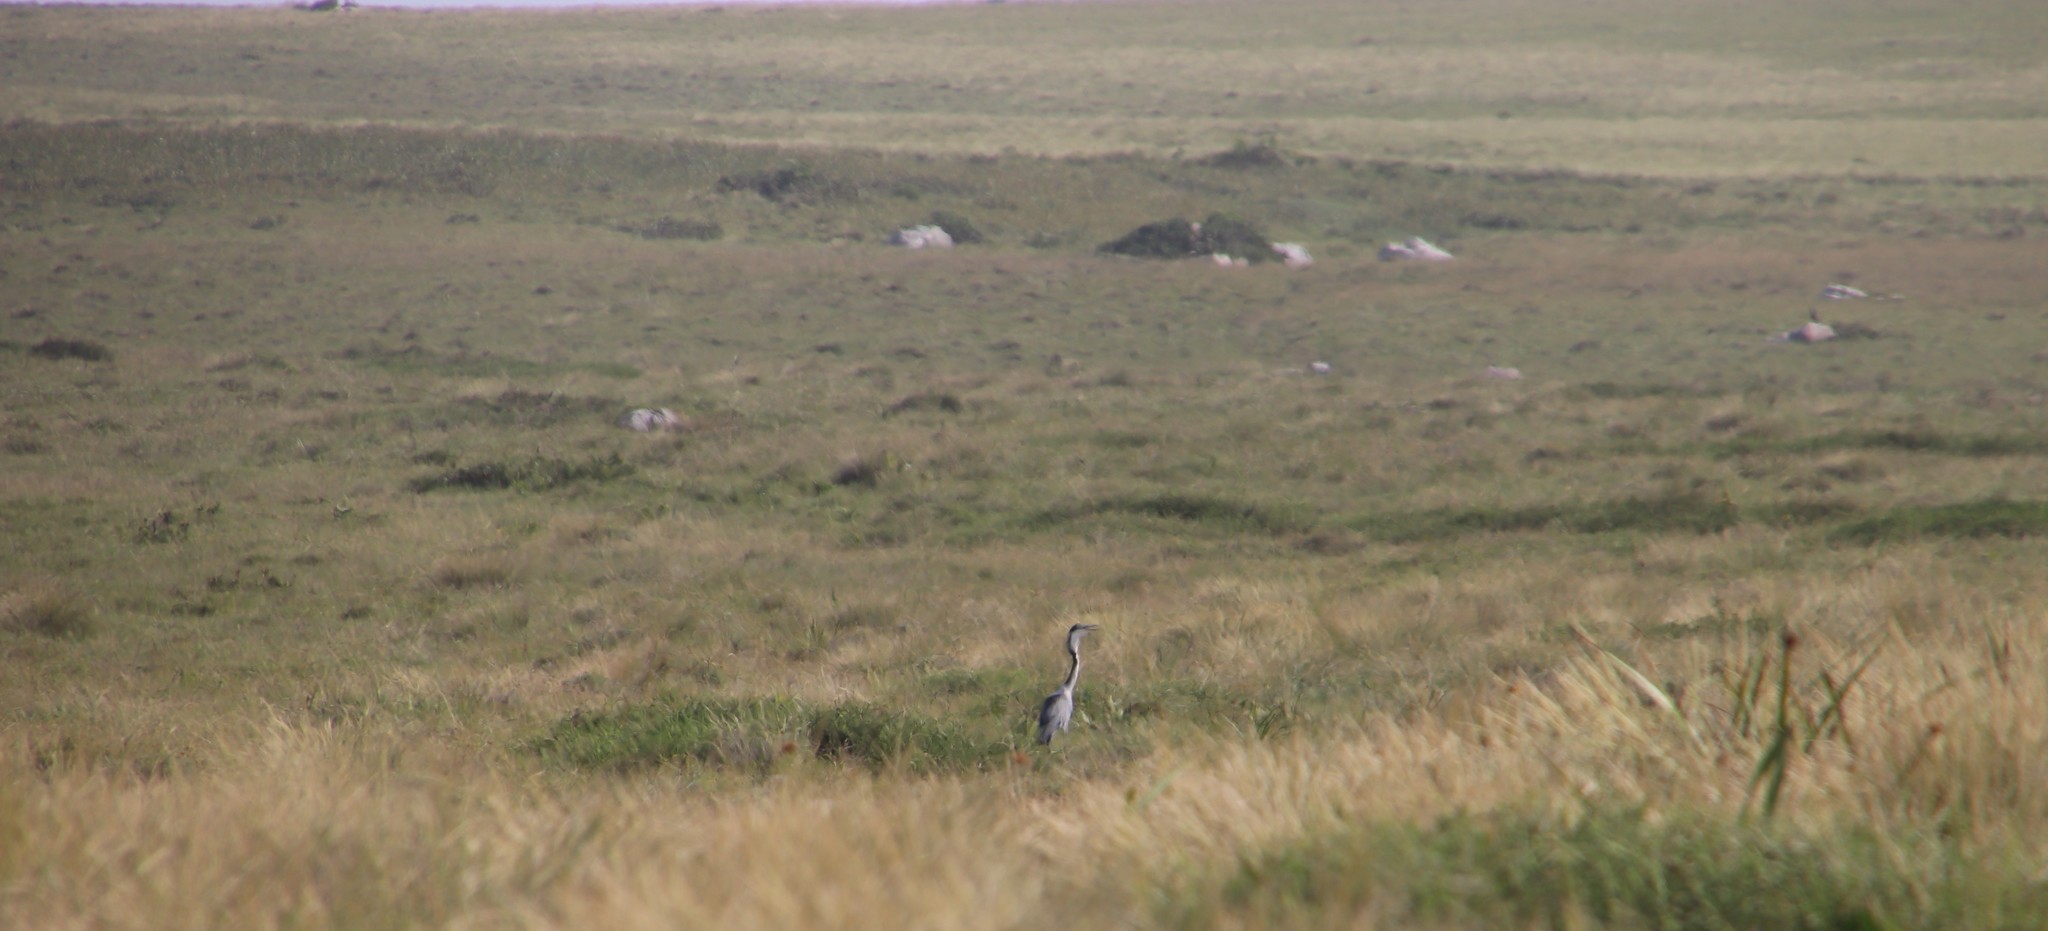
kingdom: Animalia
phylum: Chordata
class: Aves
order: Pelecaniformes
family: Ardeidae
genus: Ardea
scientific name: Ardea melanocephala
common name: Black-headed heron
